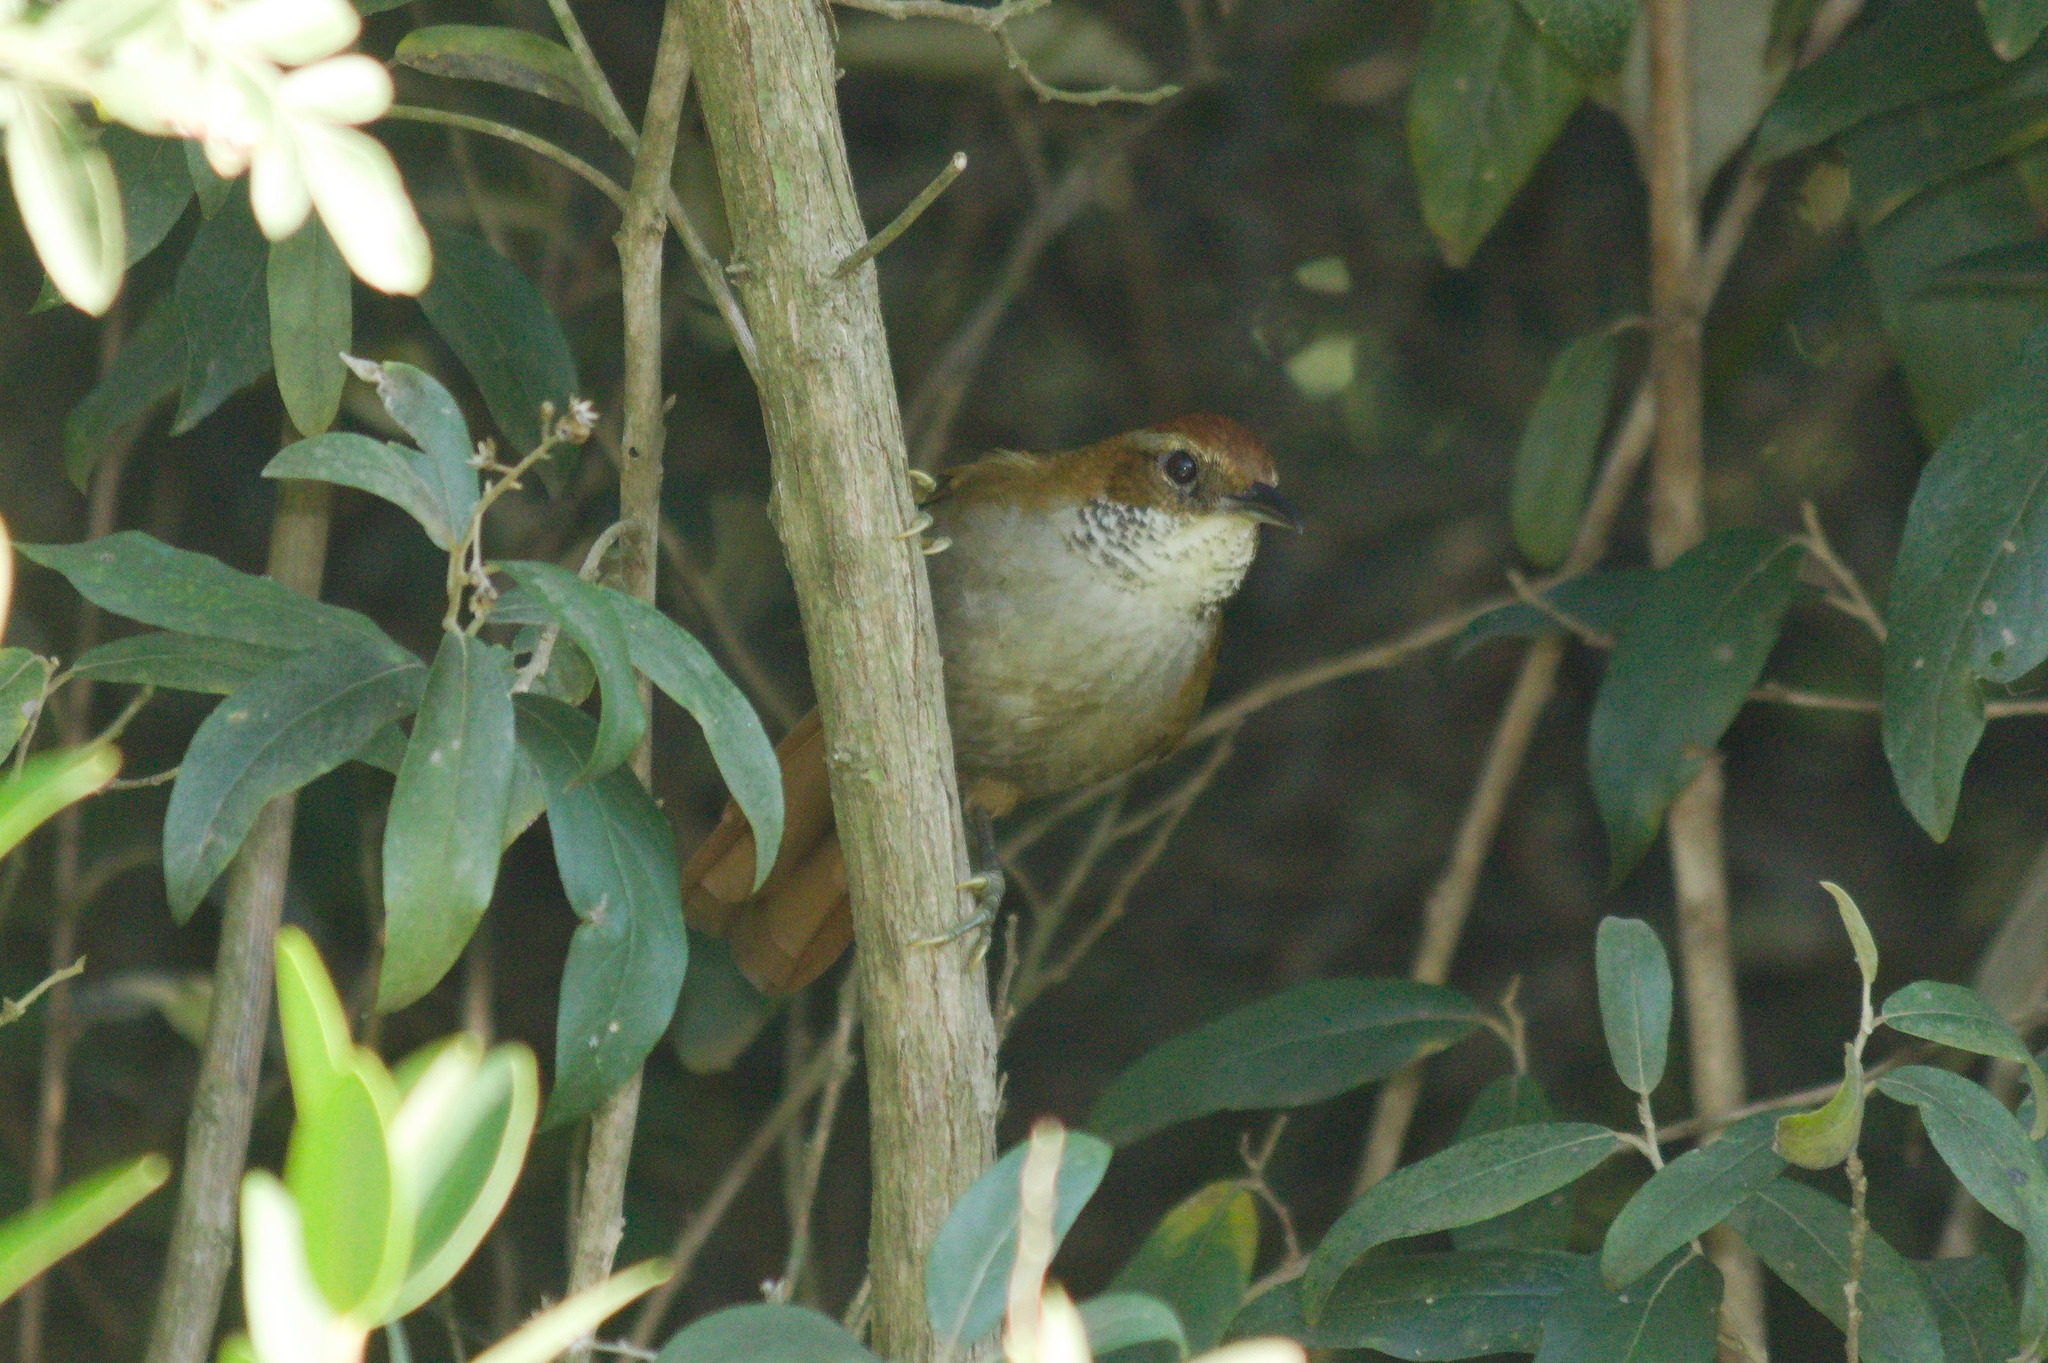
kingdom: Animalia
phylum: Chordata
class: Aves
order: Passeriformes
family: Furnariidae
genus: Clibanornis
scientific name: Clibanornis dendrocolaptoides
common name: Canebrake groundcreeper
